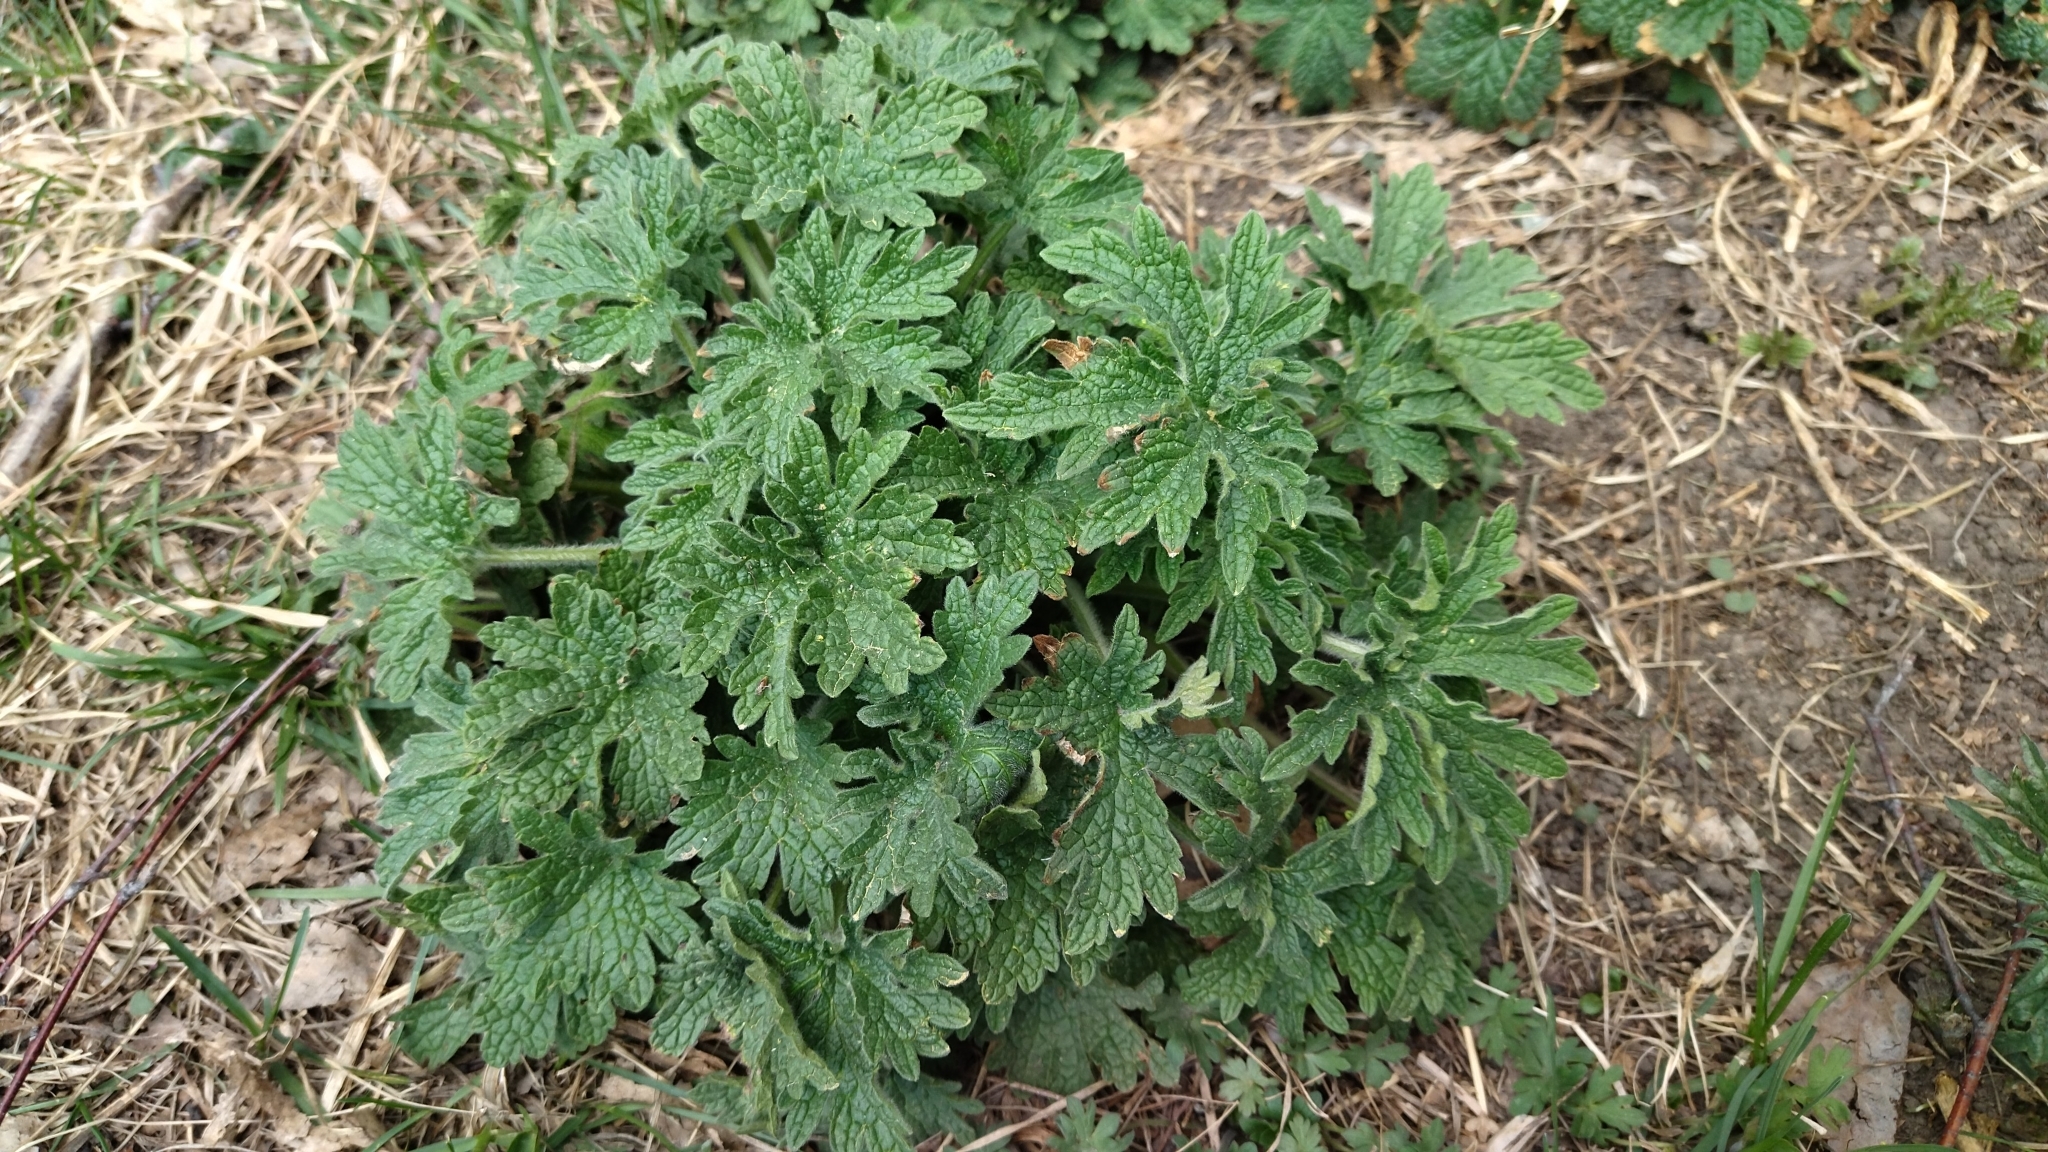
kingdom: Plantae
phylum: Tracheophyta
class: Magnoliopsida
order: Lamiales
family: Lamiaceae
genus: Leonurus
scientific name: Leonurus quinquelobatus
